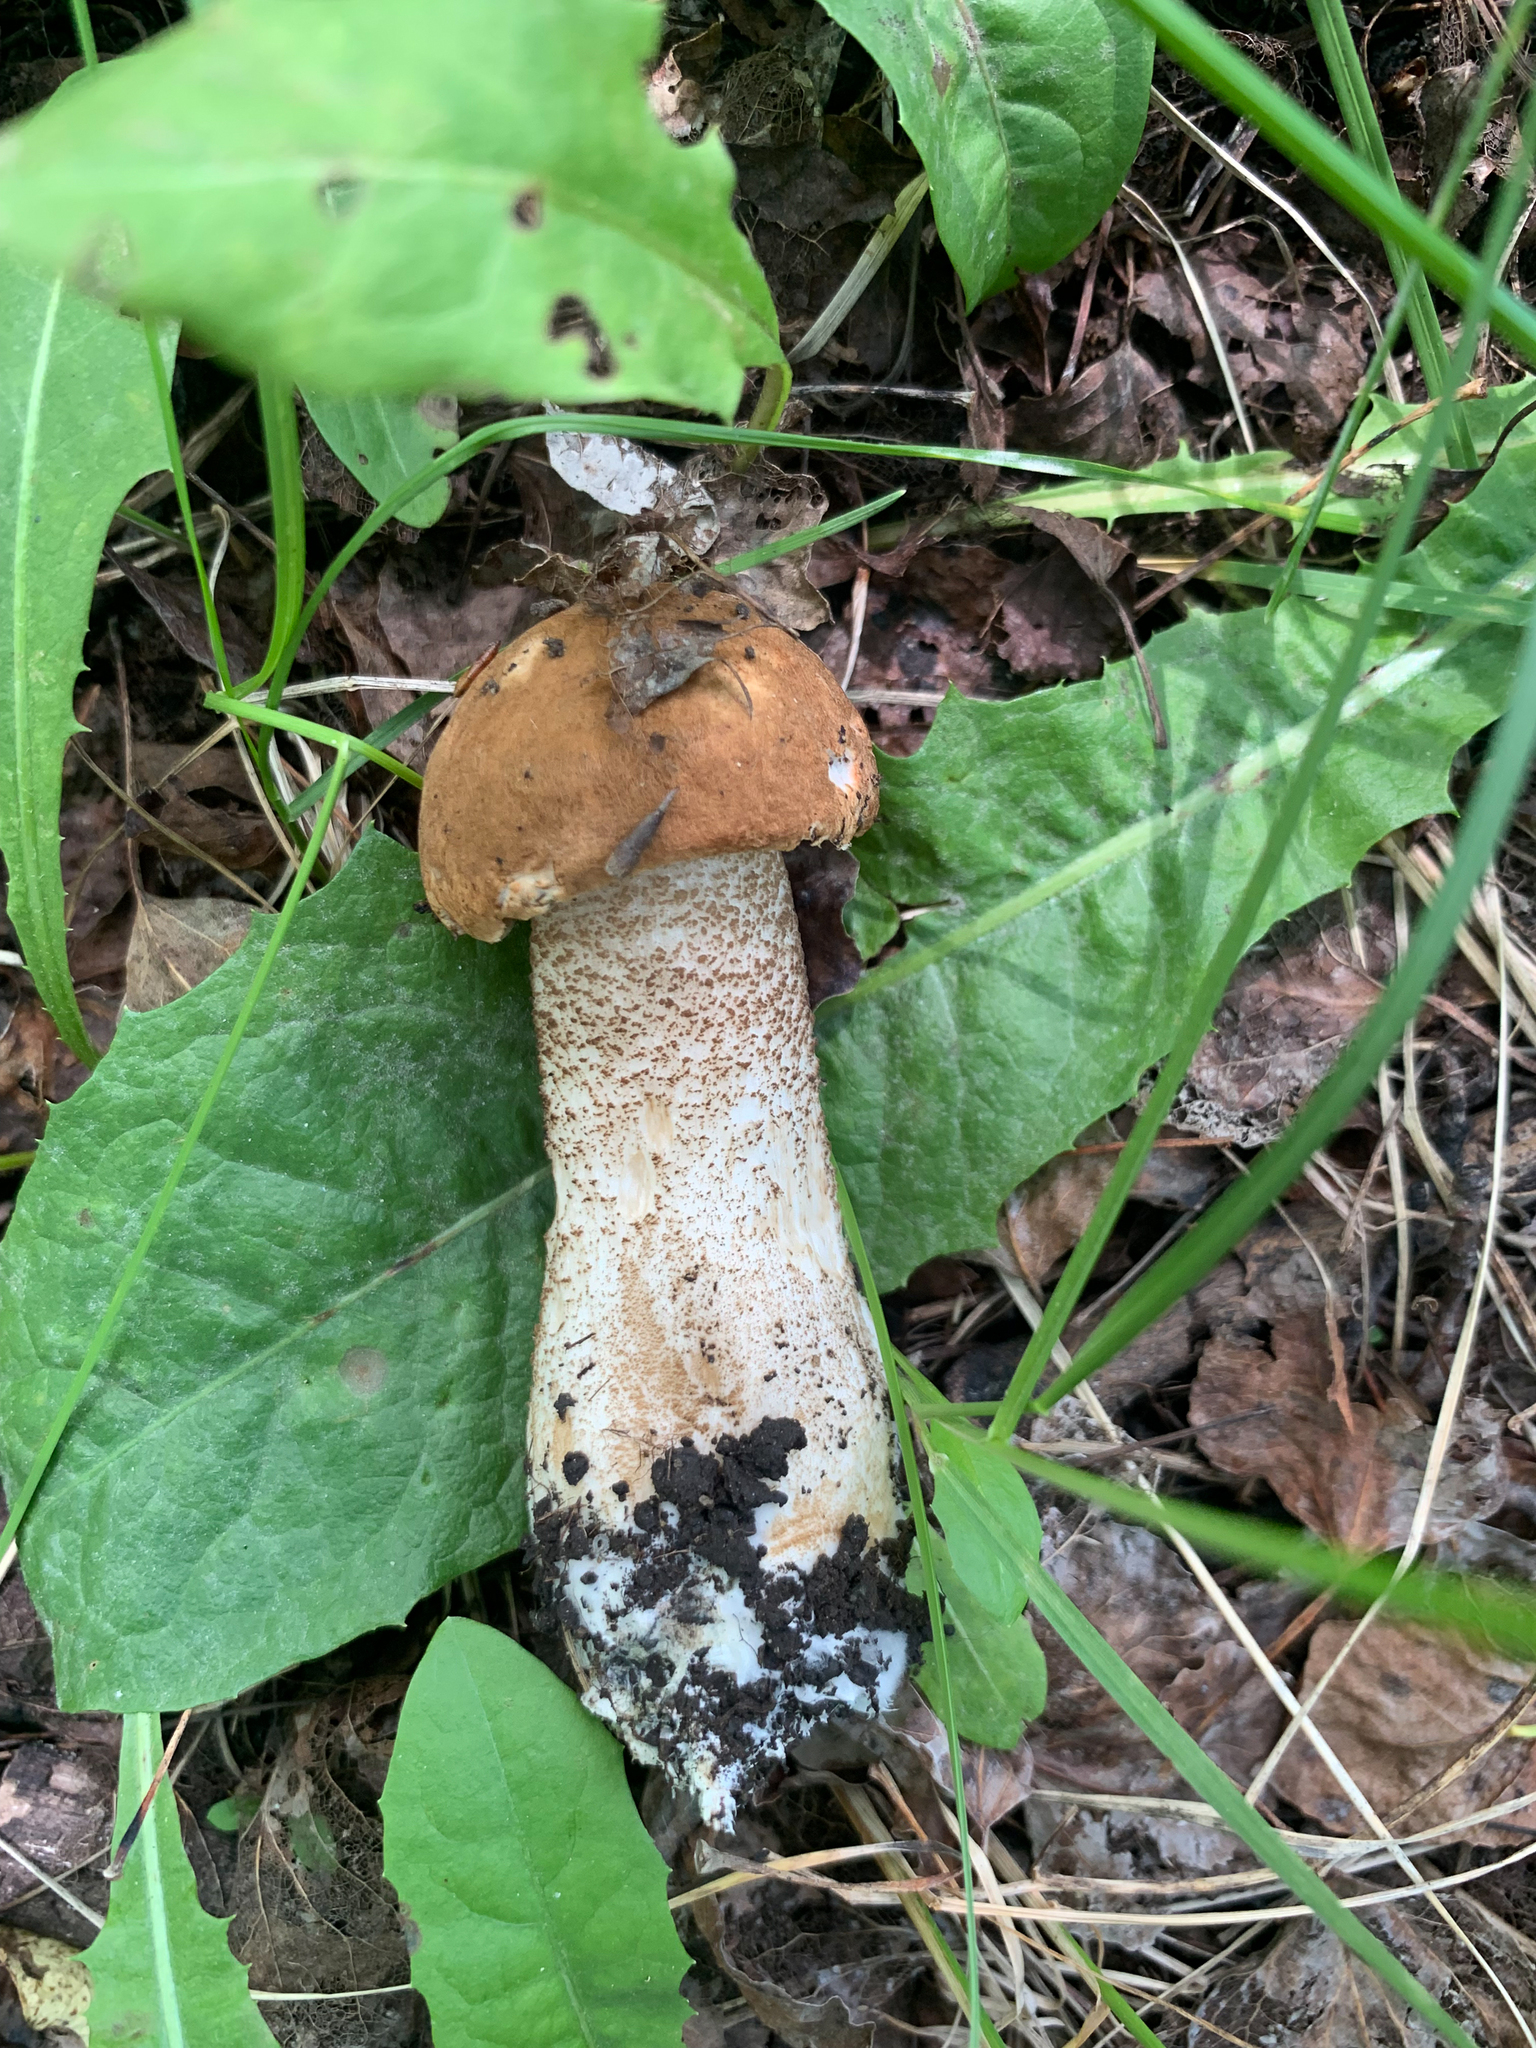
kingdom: Fungi
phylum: Basidiomycota
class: Agaricomycetes
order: Boletales
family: Boletaceae
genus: Leccinum
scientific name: Leccinum insigne
